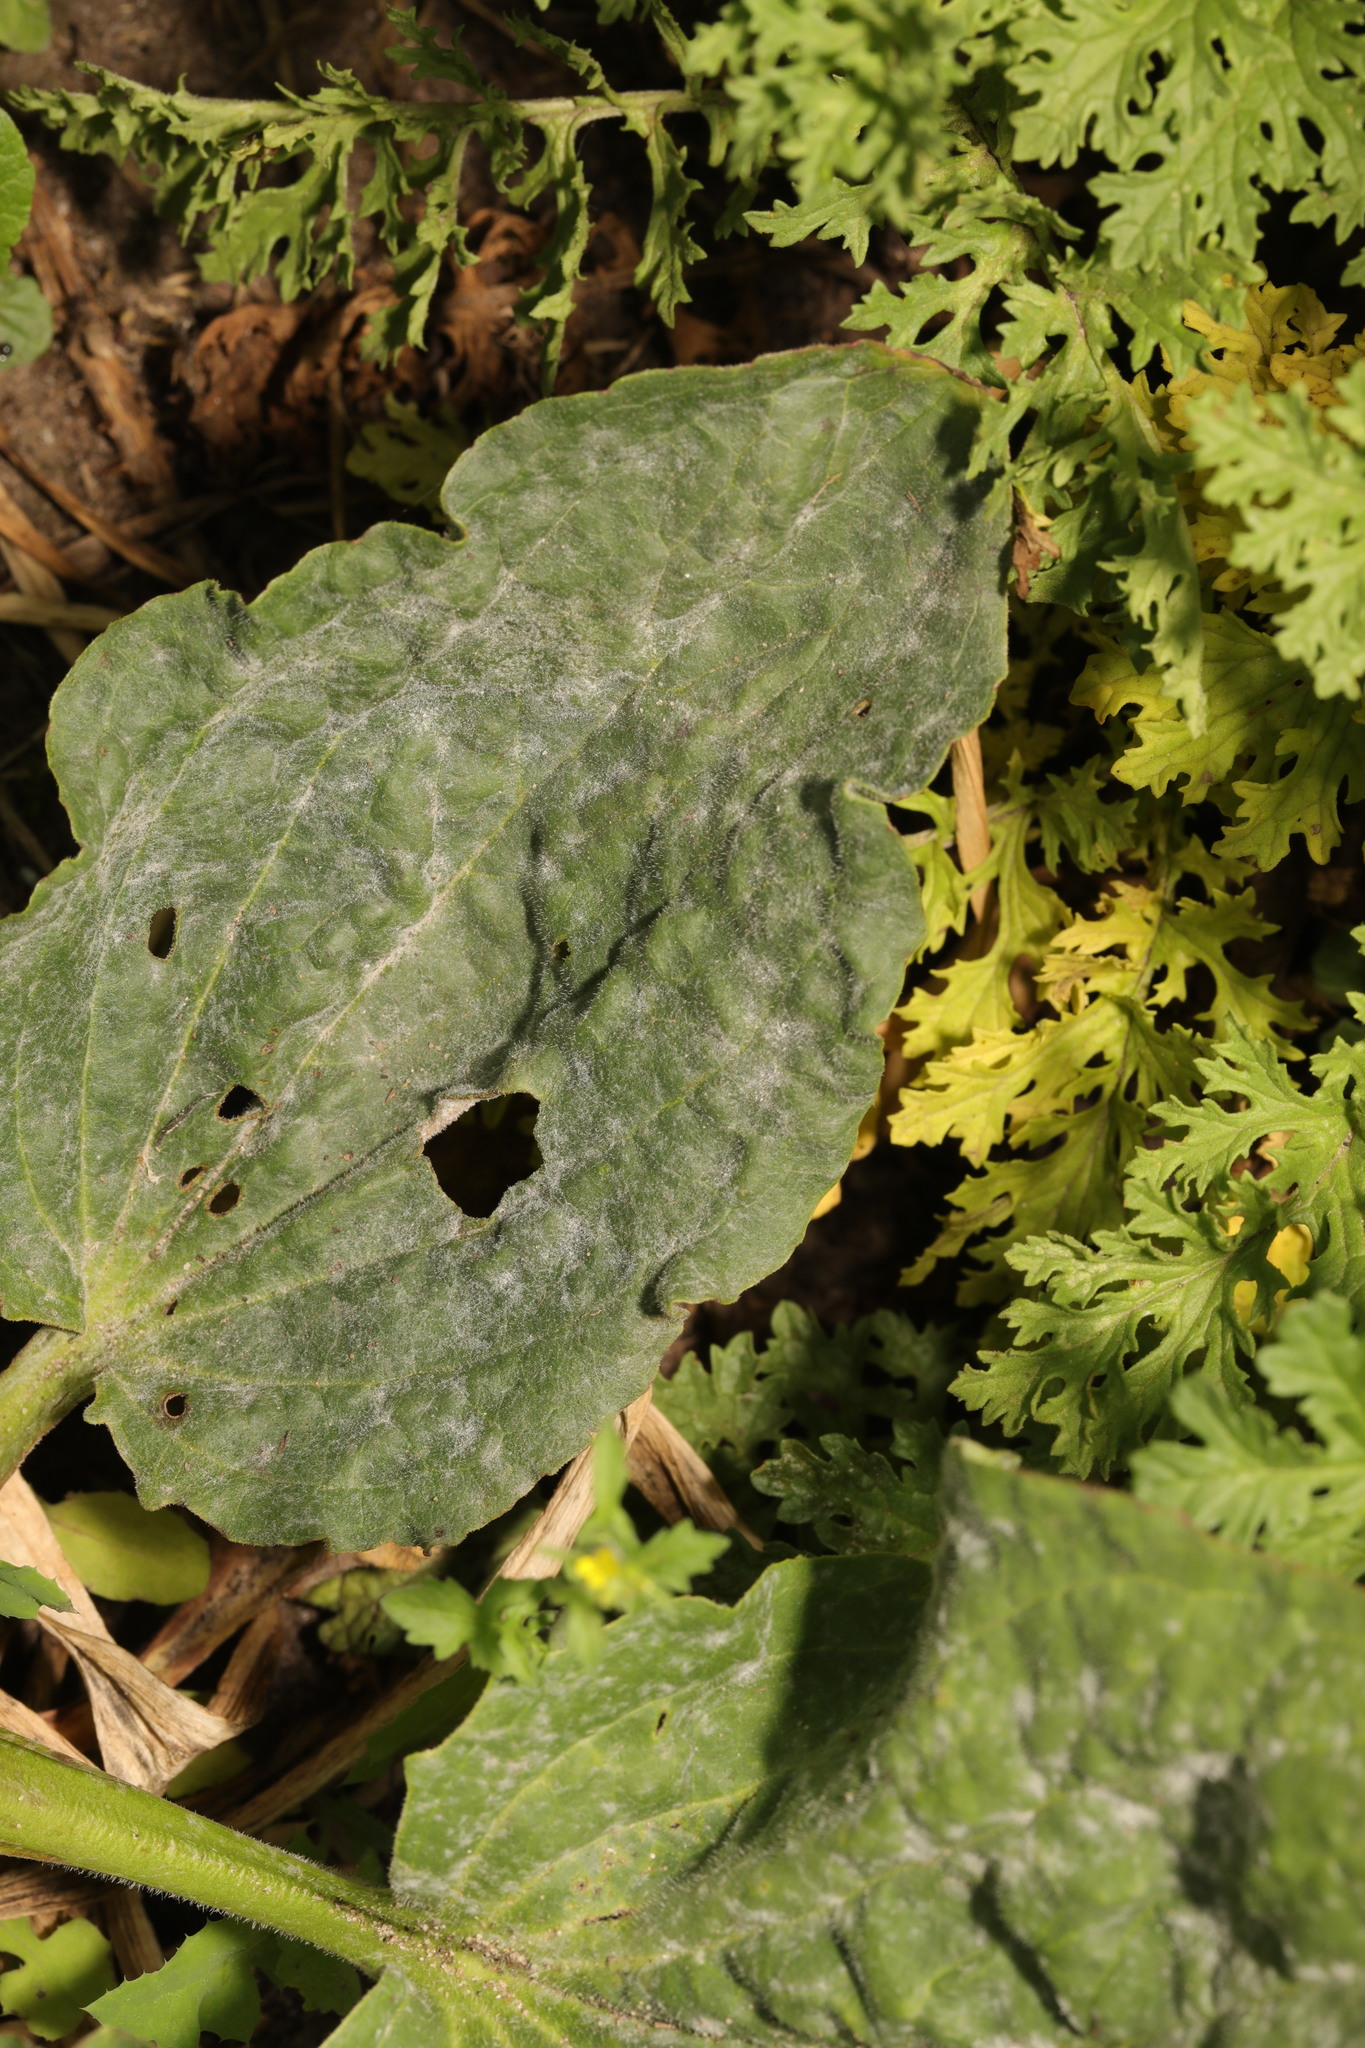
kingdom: Plantae
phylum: Tracheophyta
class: Magnoliopsida
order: Lamiales
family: Plantaginaceae
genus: Plantago
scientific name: Plantago major
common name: Common plantain
